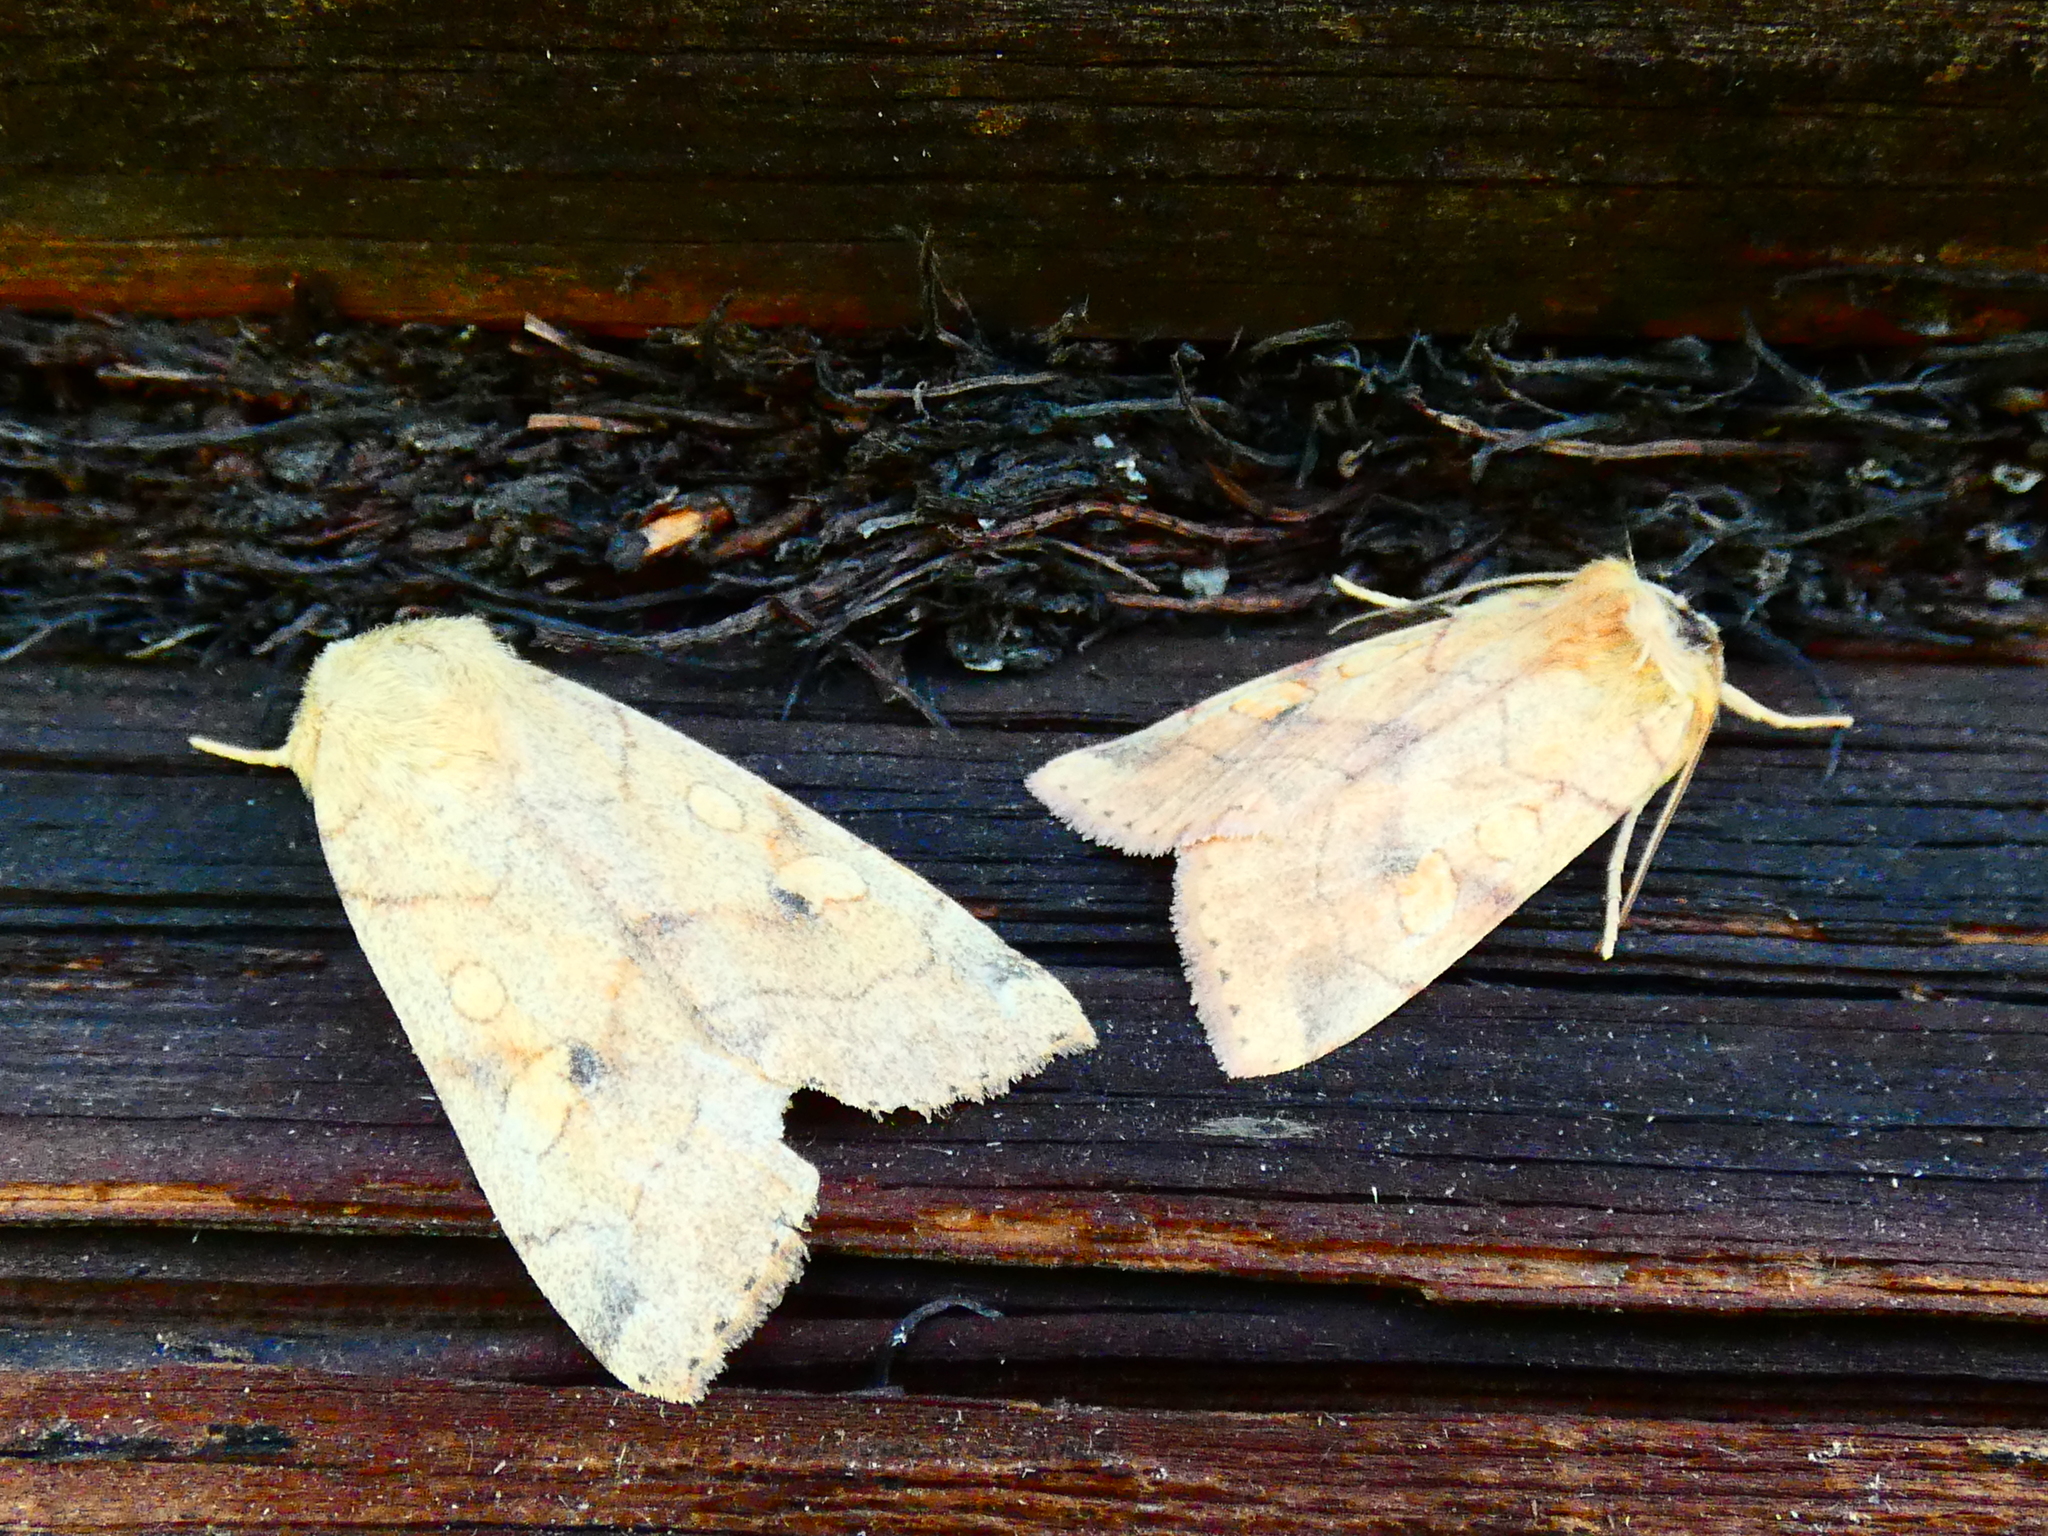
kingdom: Animalia
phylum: Arthropoda
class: Insecta
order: Lepidoptera
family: Noctuidae
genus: Enargia
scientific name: Enargia paleacea
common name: Angle-striped sallow
